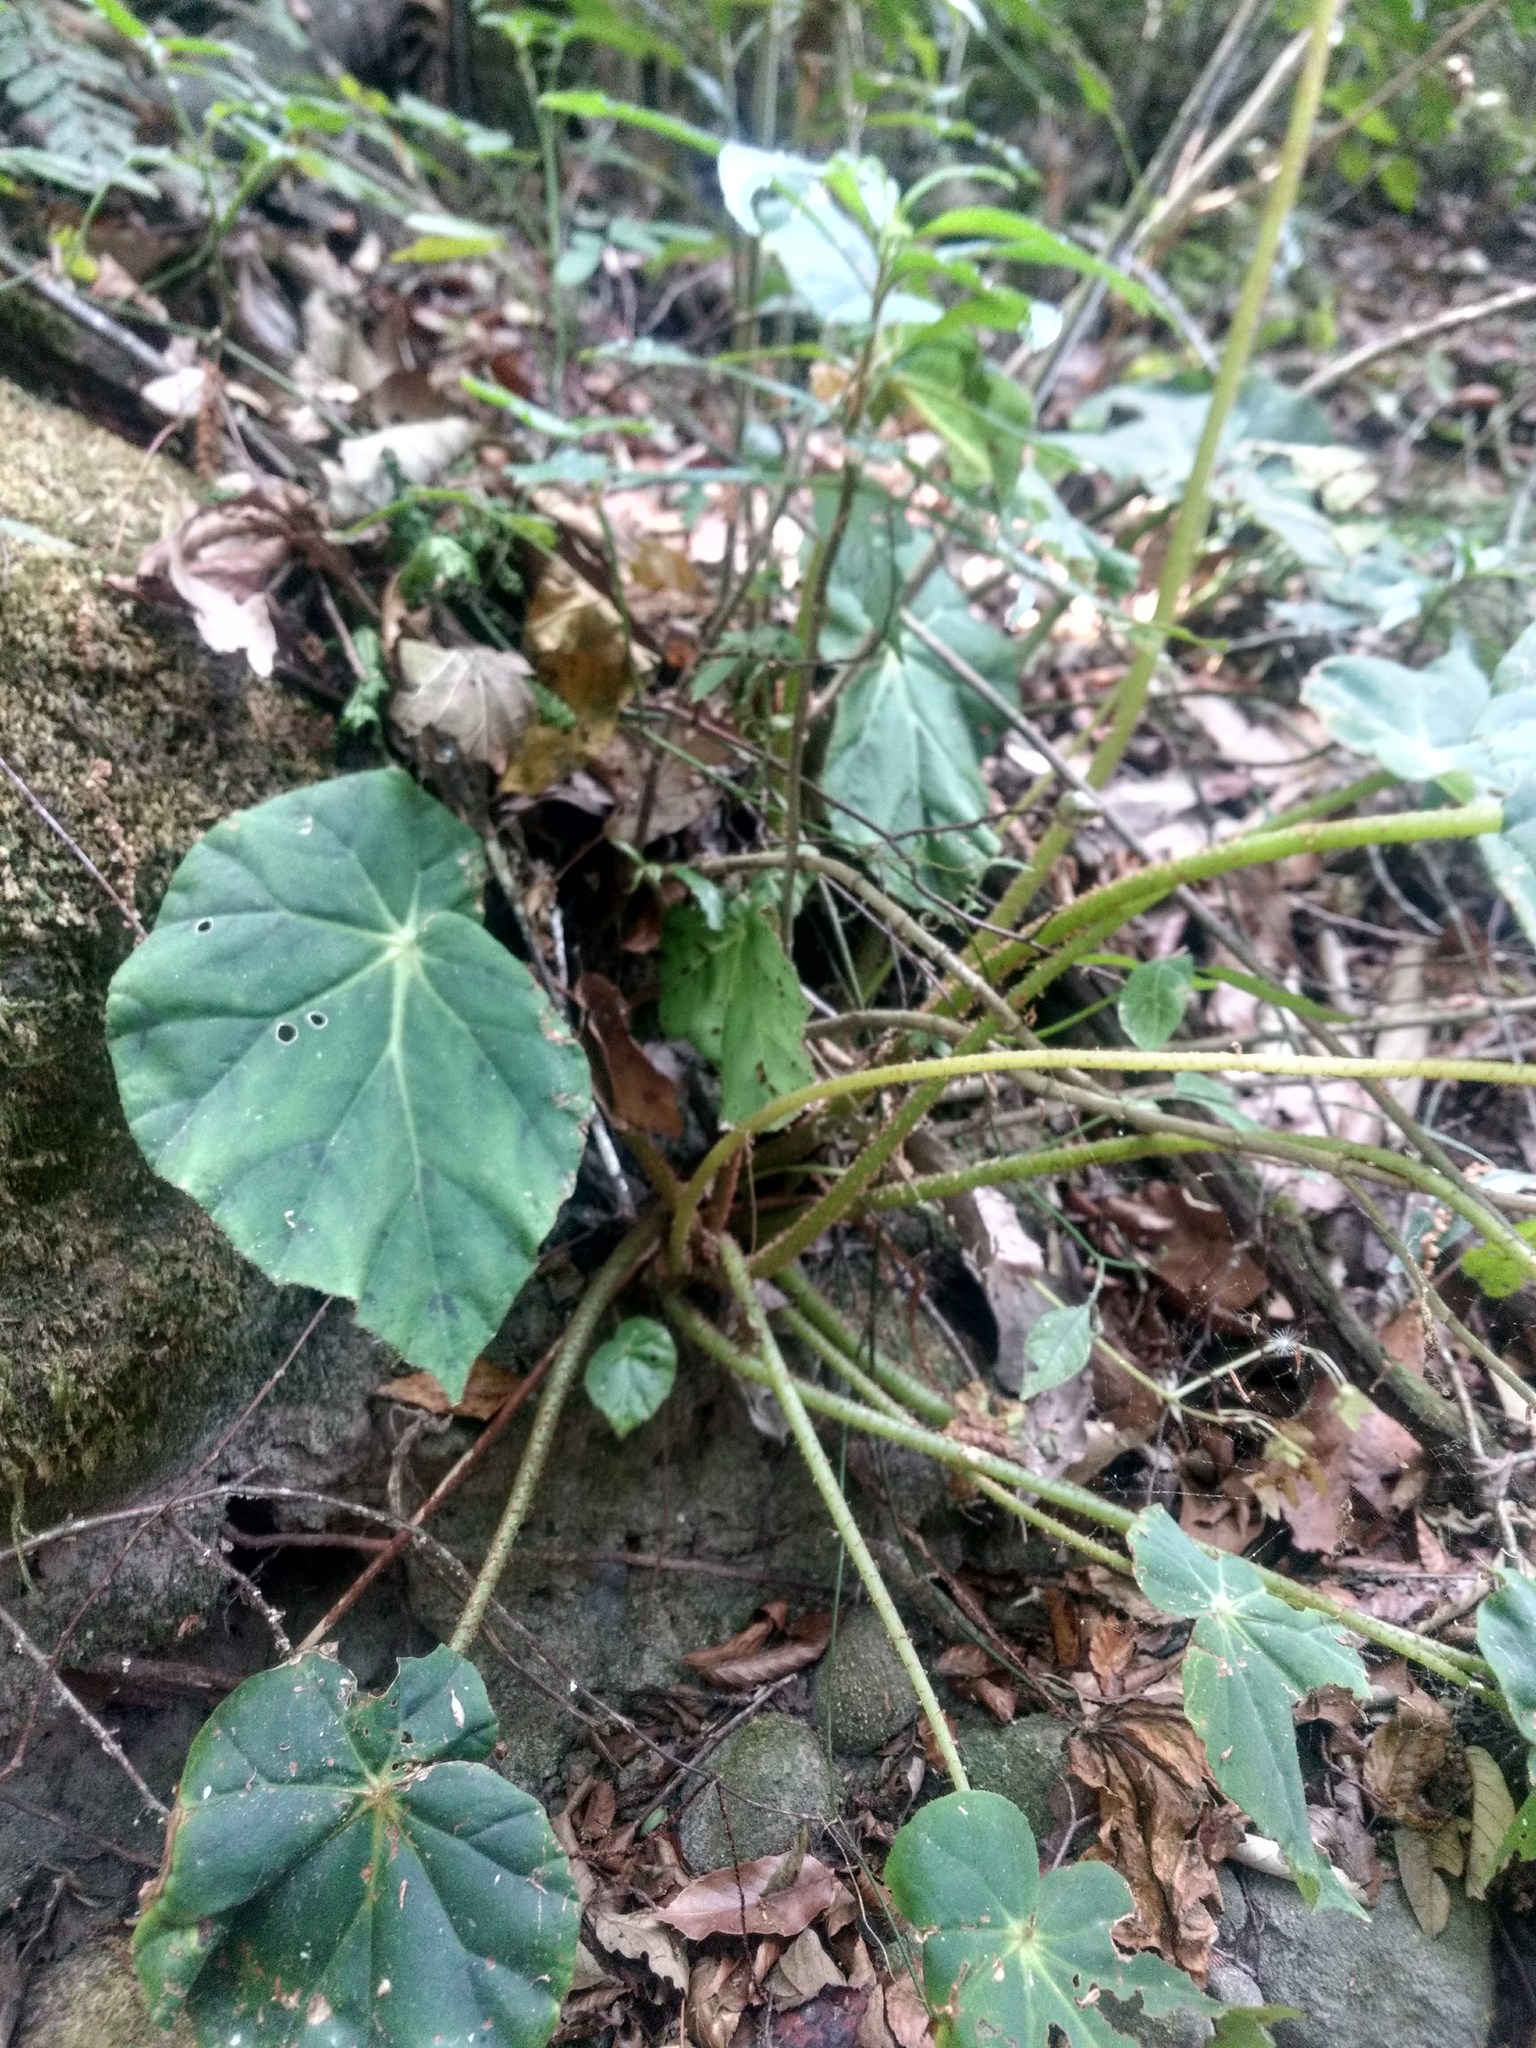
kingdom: Plantae
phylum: Tracheophyta
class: Magnoliopsida
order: Cucurbitales
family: Begoniaceae
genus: Begonia
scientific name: Begonia plebeja
